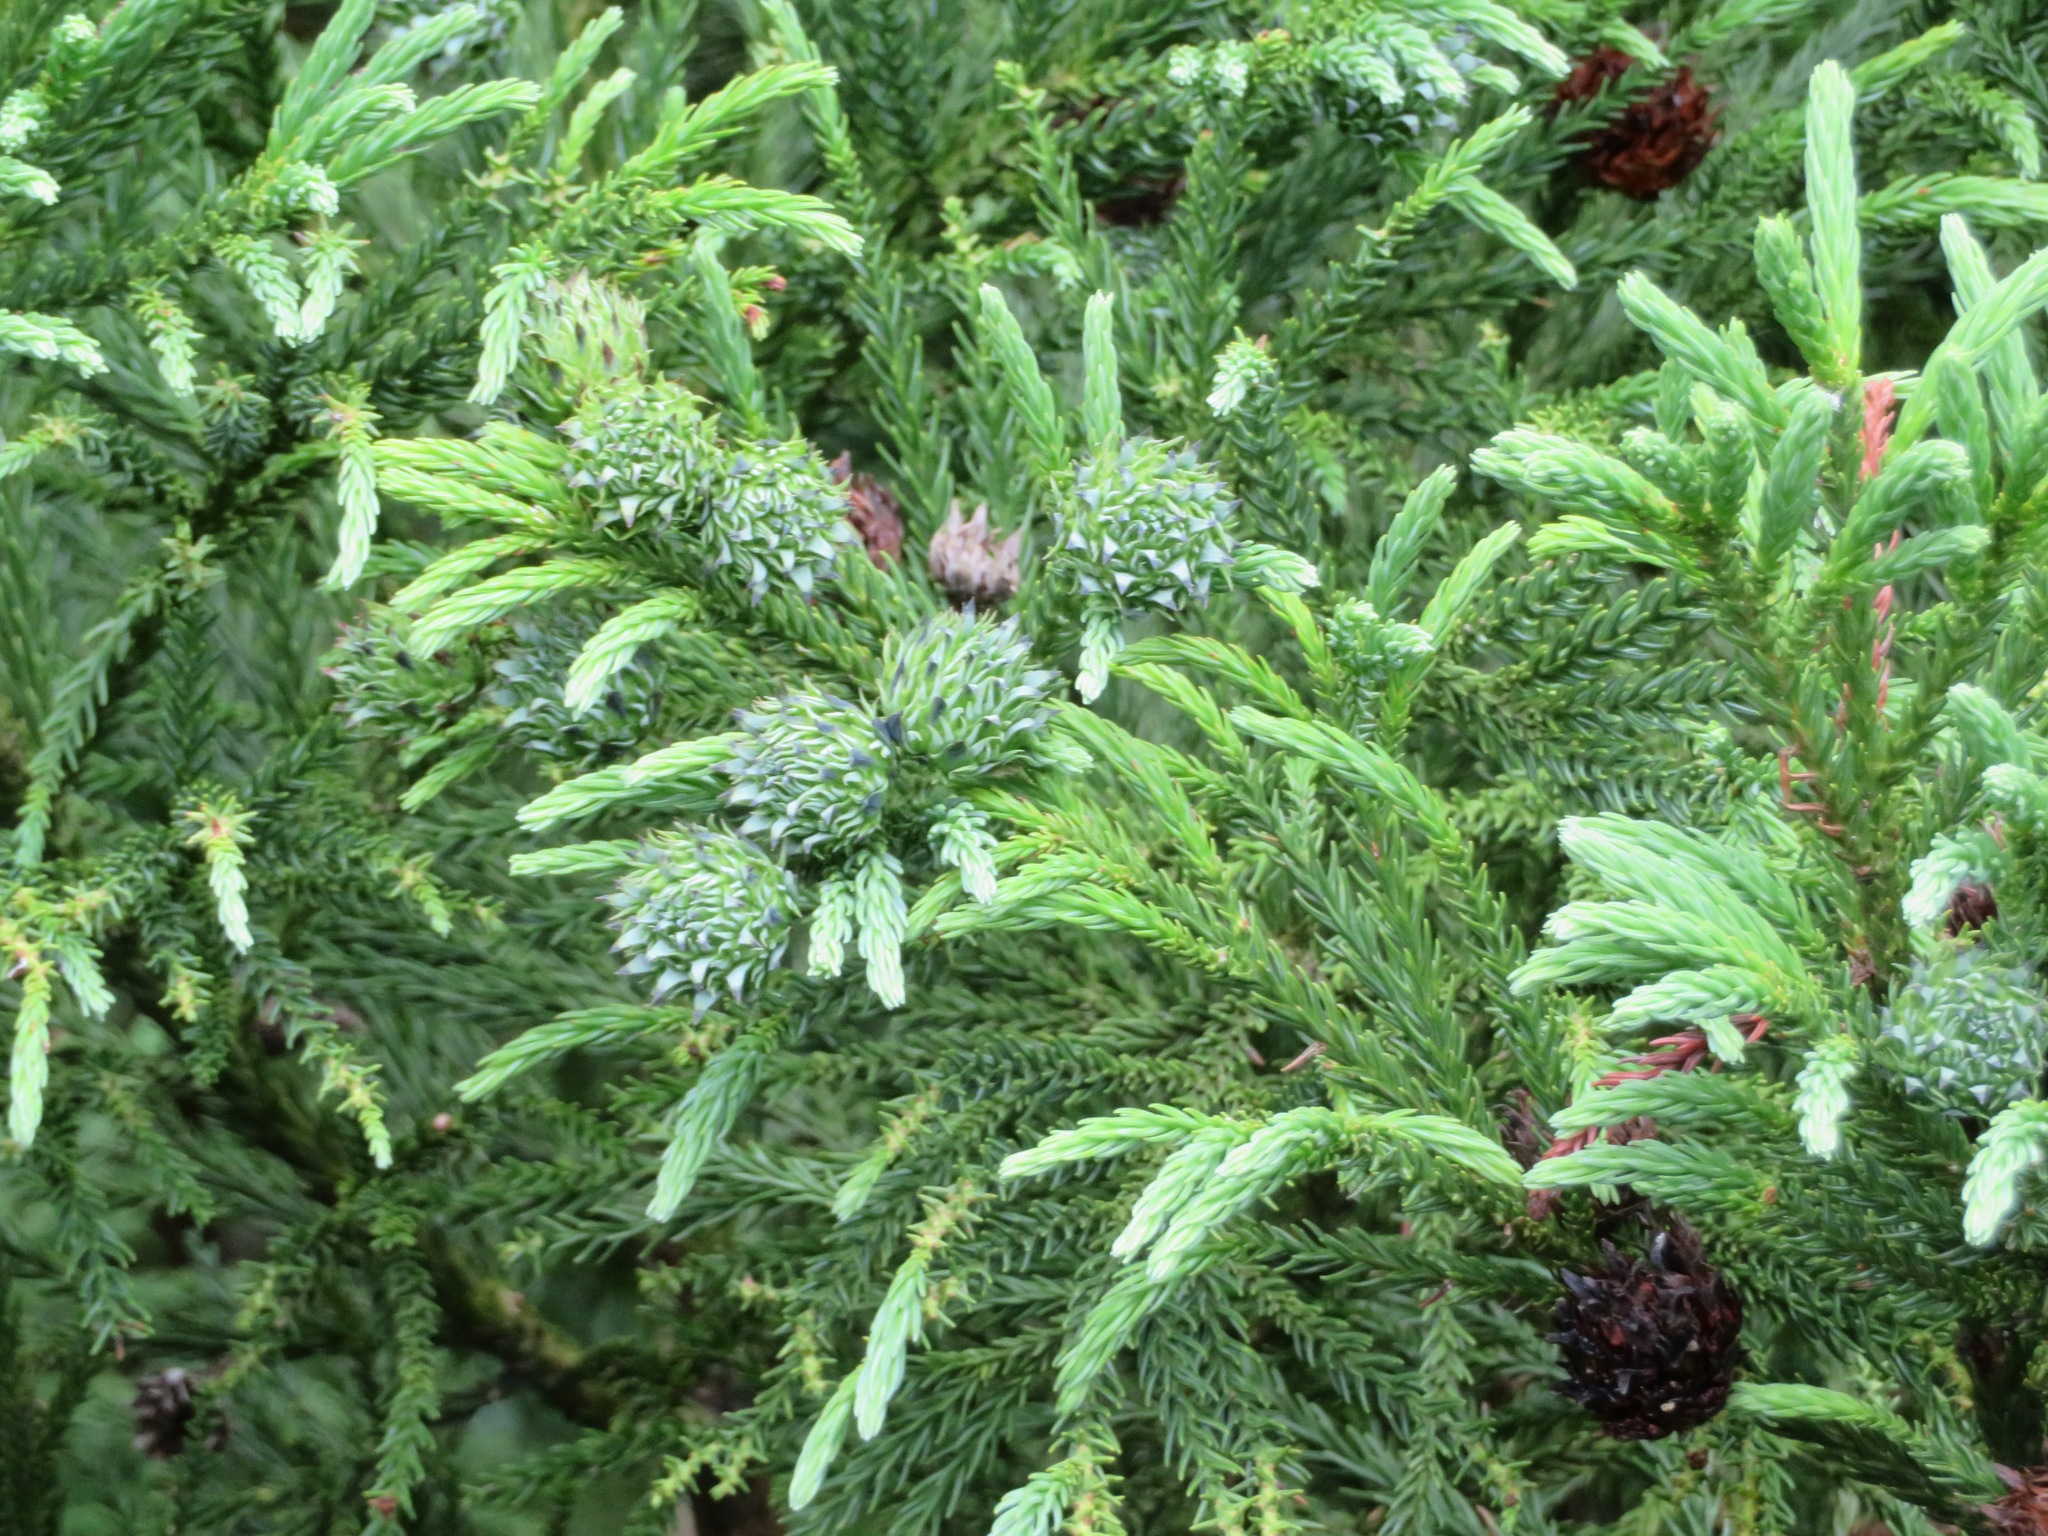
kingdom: Plantae
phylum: Tracheophyta
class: Pinopsida
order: Pinales
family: Cupressaceae
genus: Cryptomeria
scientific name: Cryptomeria japonica
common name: Japanese cedar
